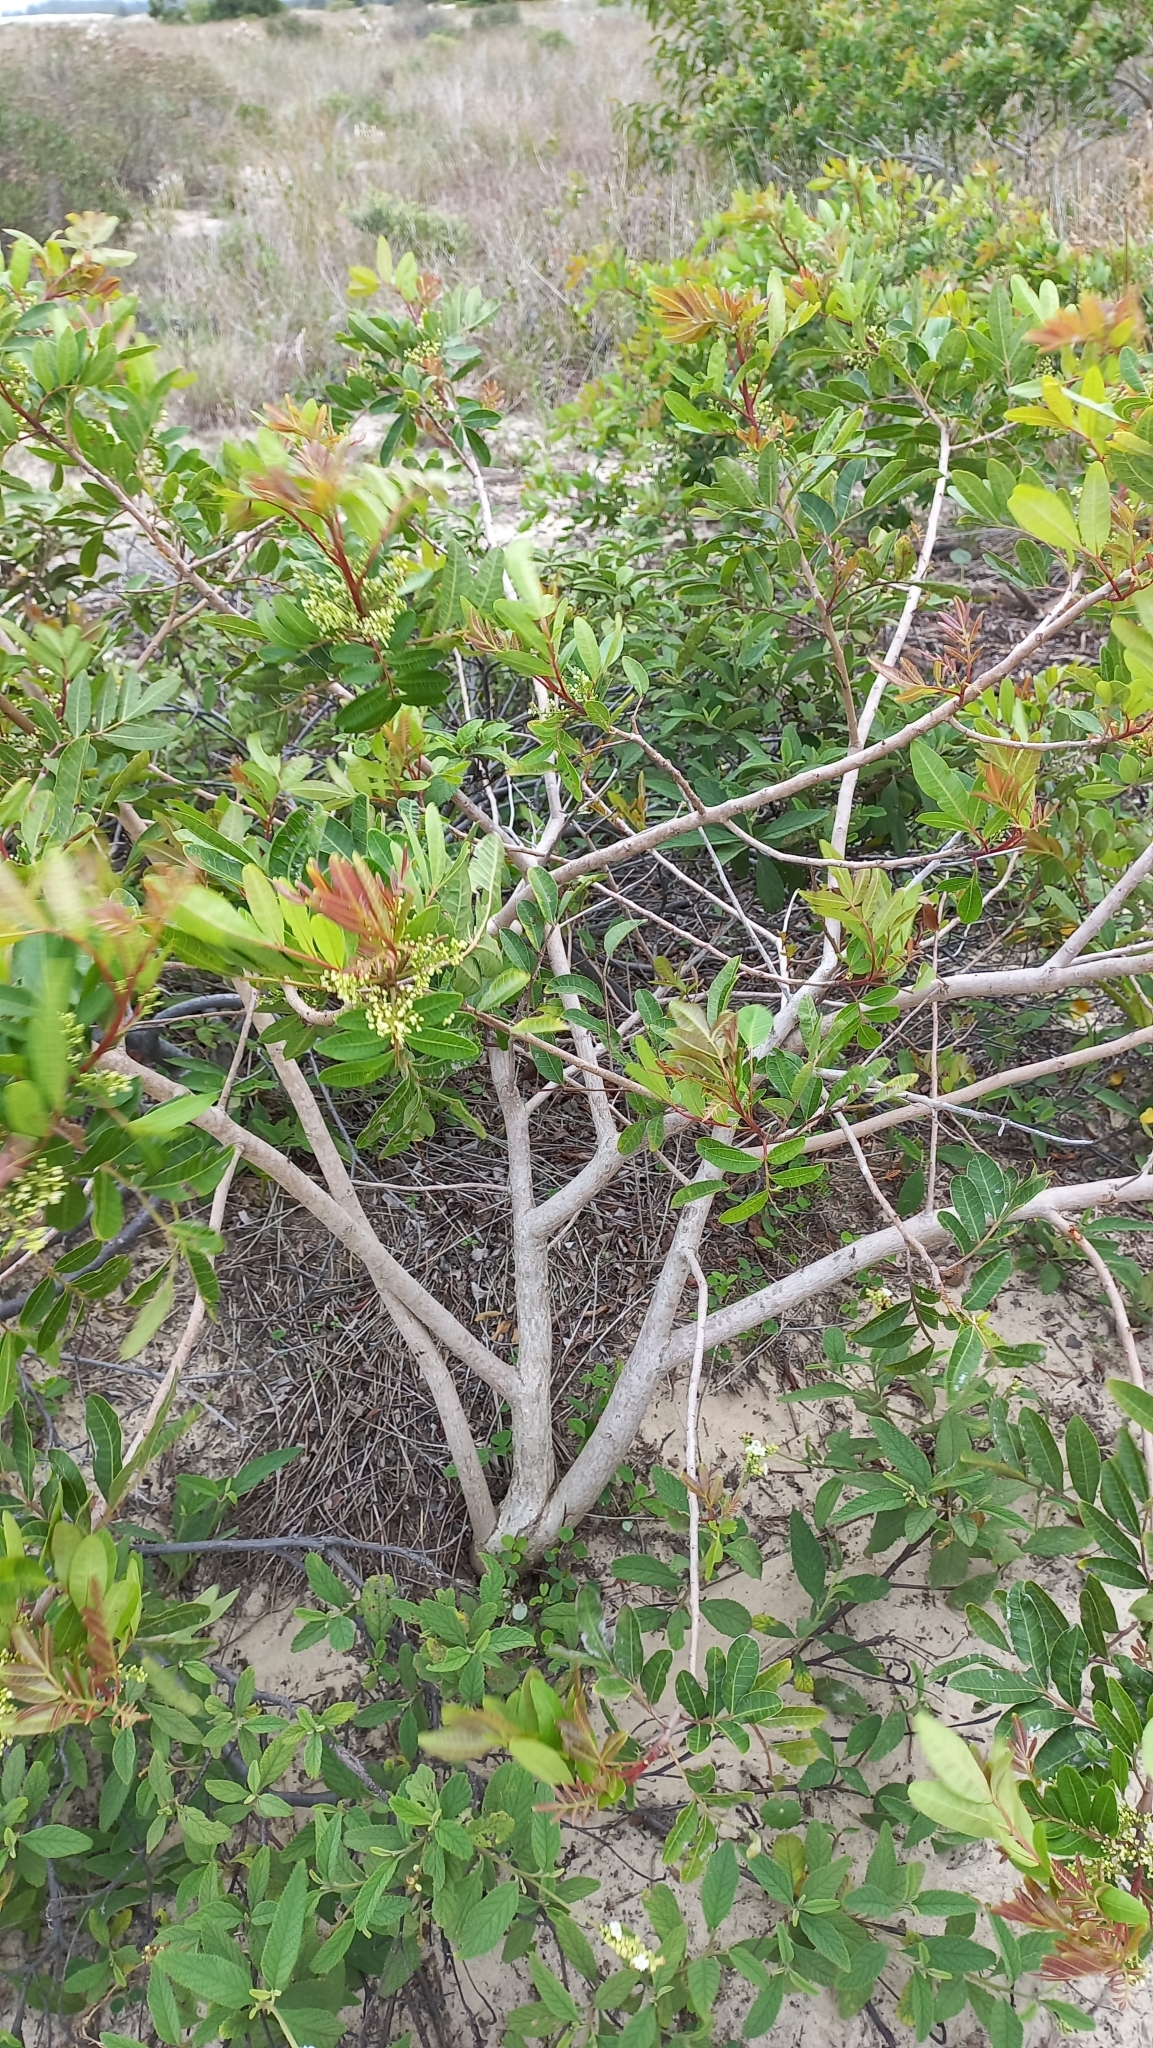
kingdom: Plantae
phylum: Tracheophyta
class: Magnoliopsida
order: Sapindales
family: Anacardiaceae
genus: Schinus
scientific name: Schinus terebinthifolia
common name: Brazilian peppertree
